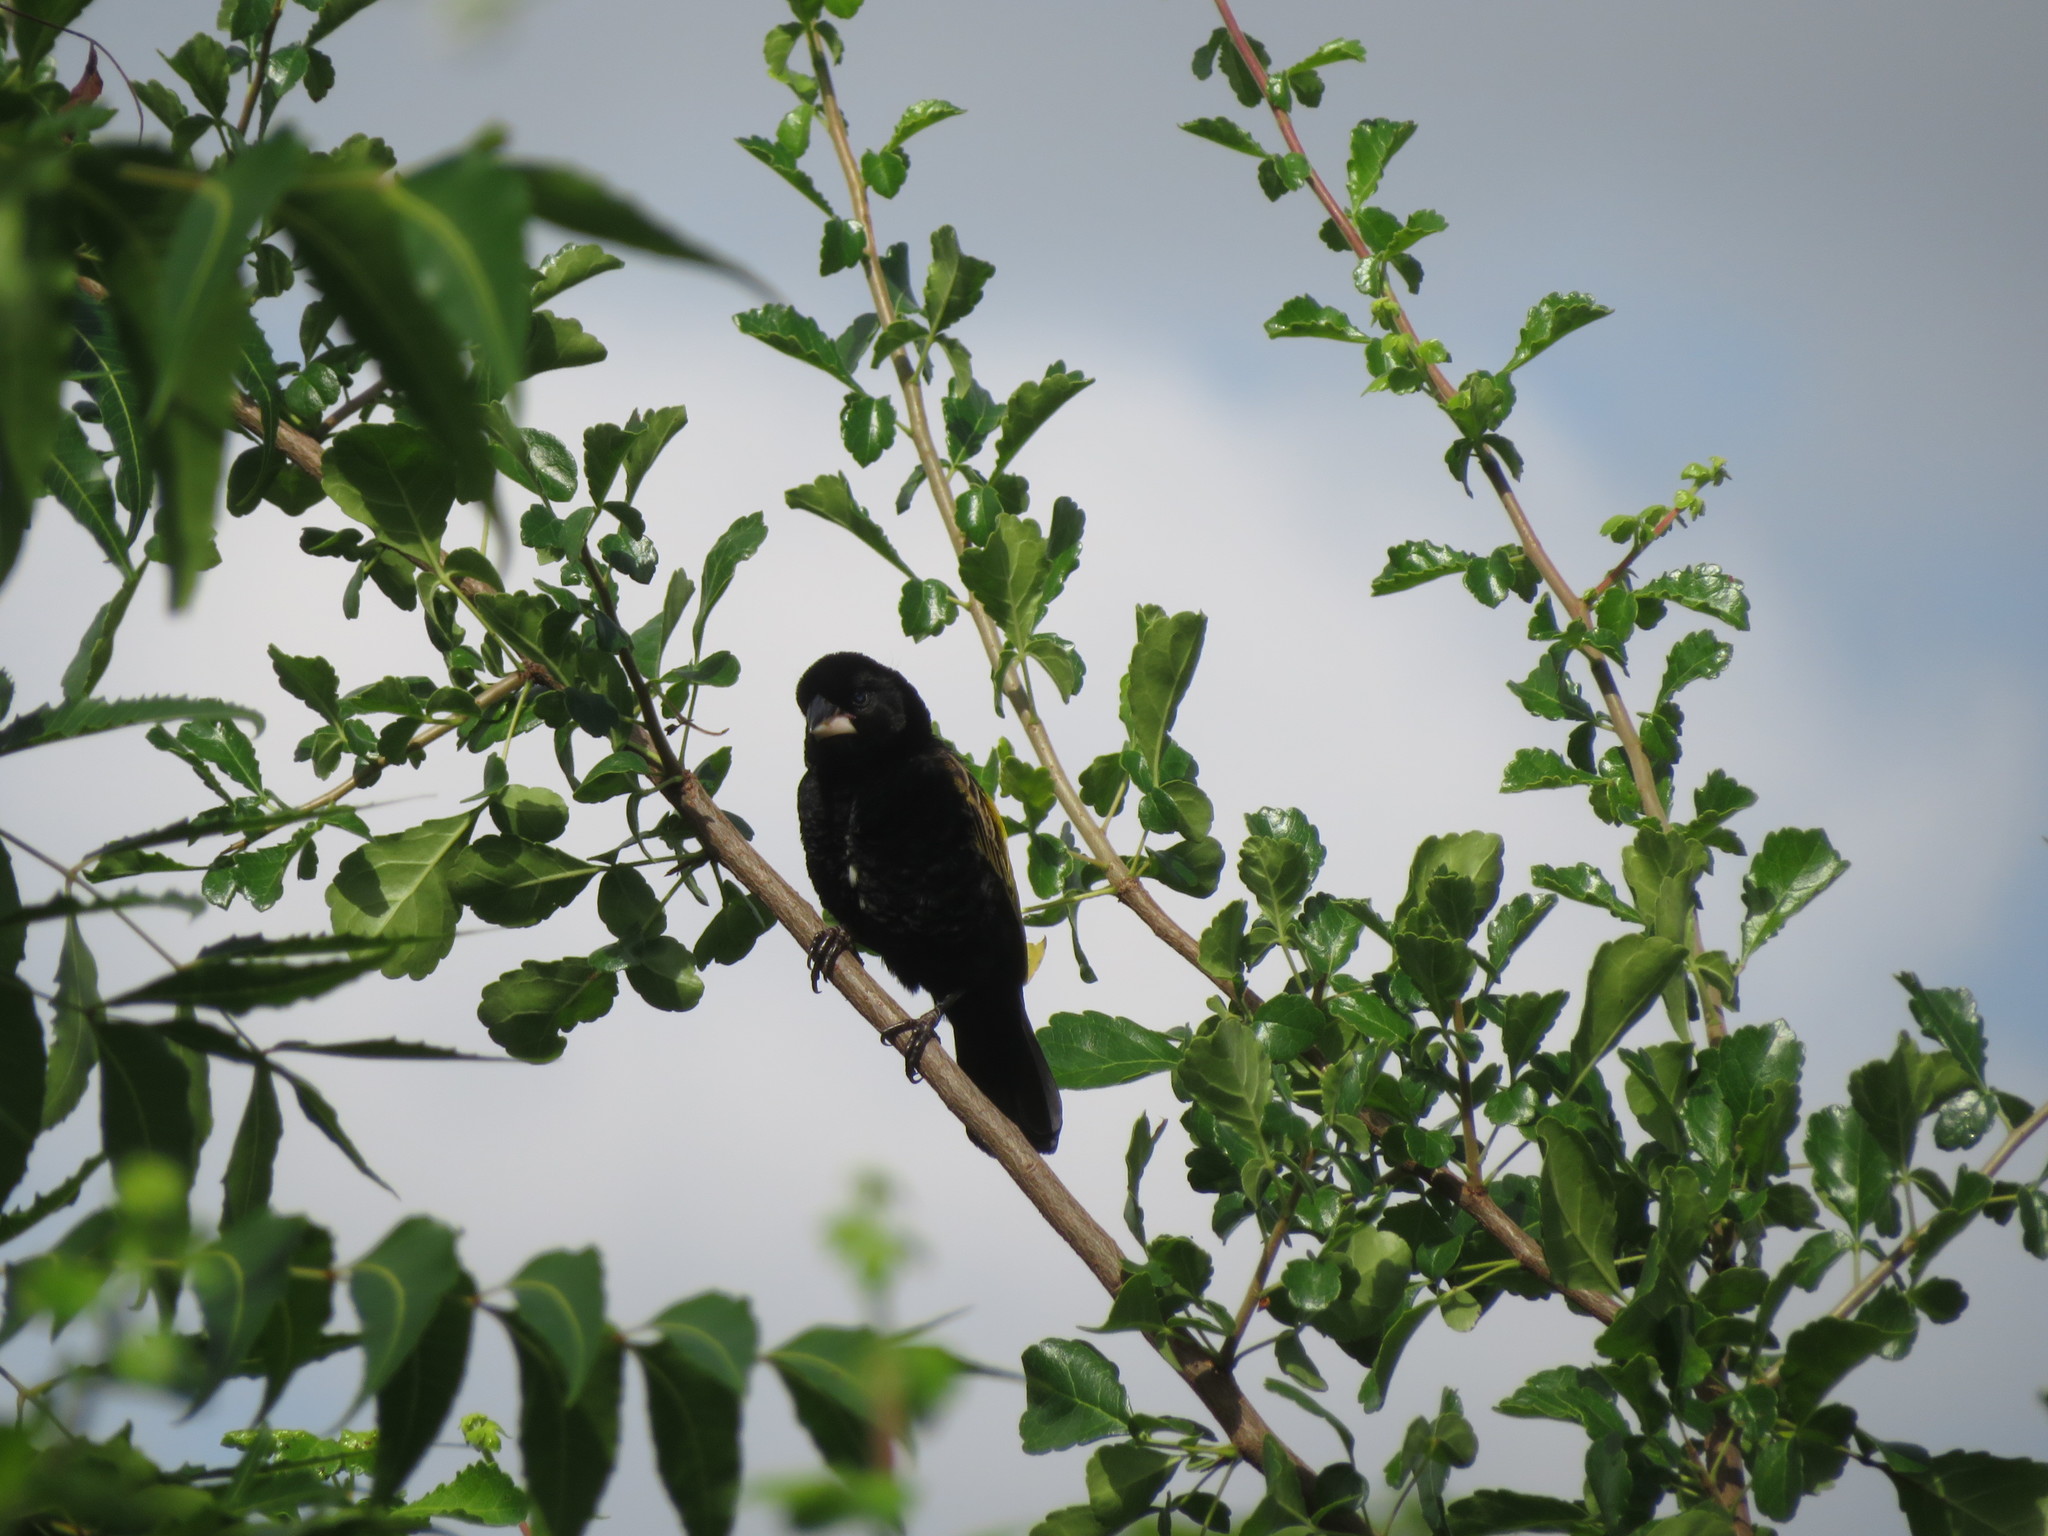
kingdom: Animalia
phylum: Chordata
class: Aves
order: Passeriformes
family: Ploceidae
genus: Euplectes
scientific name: Euplectes capensis
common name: Yellow bishop
